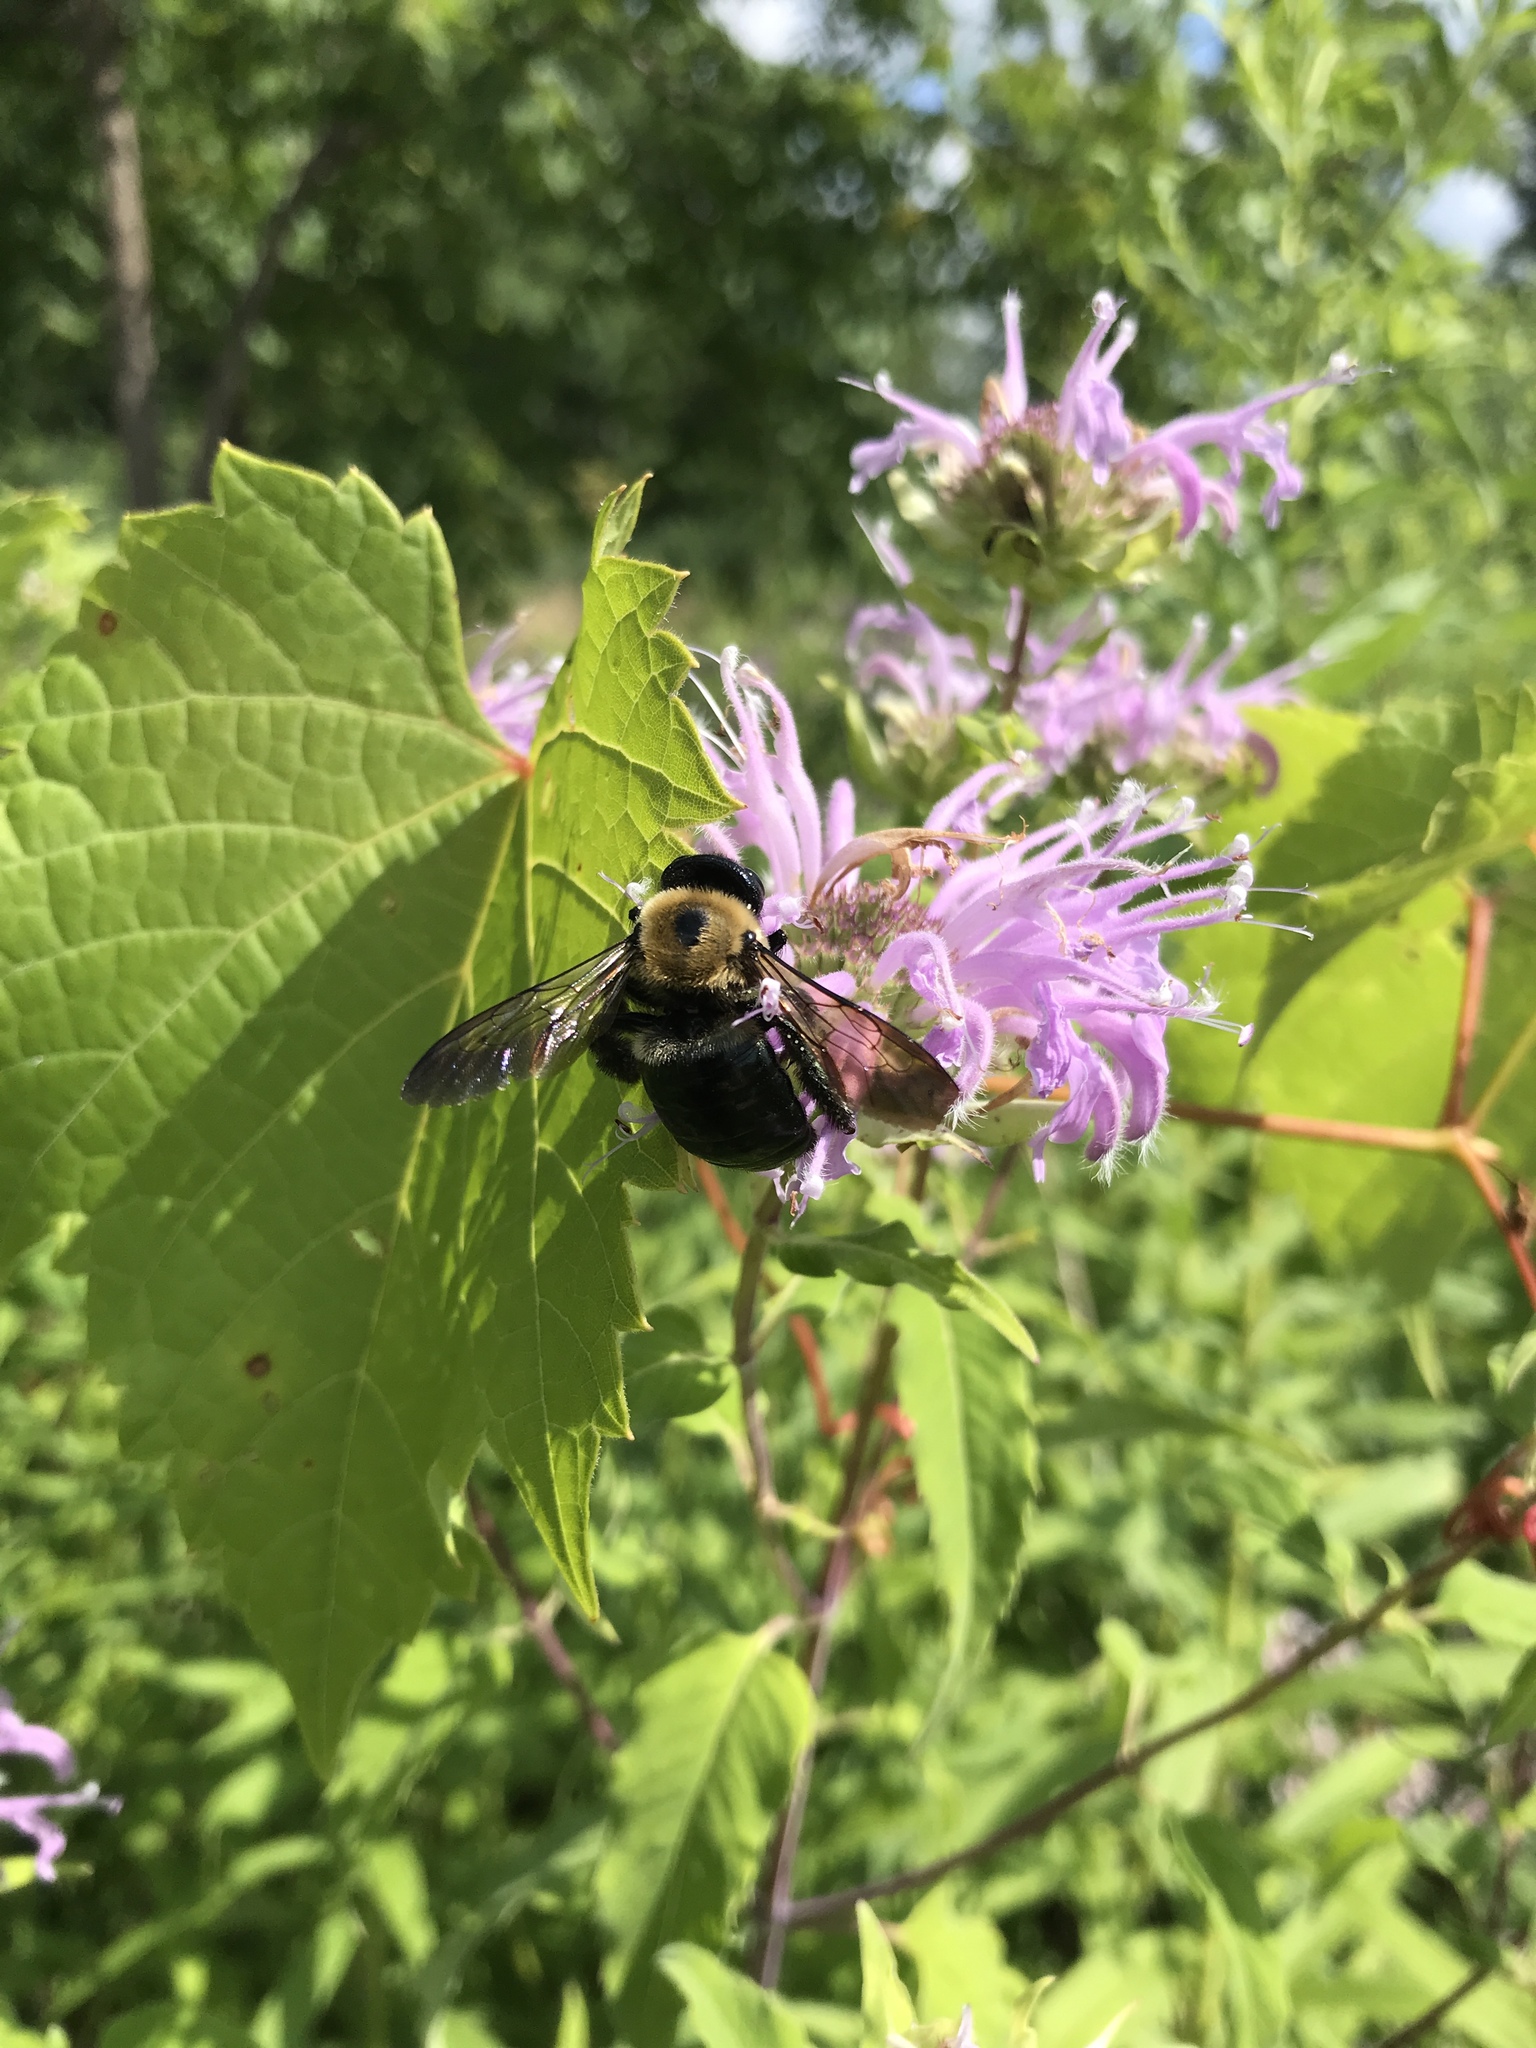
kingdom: Animalia
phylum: Arthropoda
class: Insecta
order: Hymenoptera
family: Apidae
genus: Xylocopa
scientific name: Xylocopa virginica
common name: Carpenter bee
